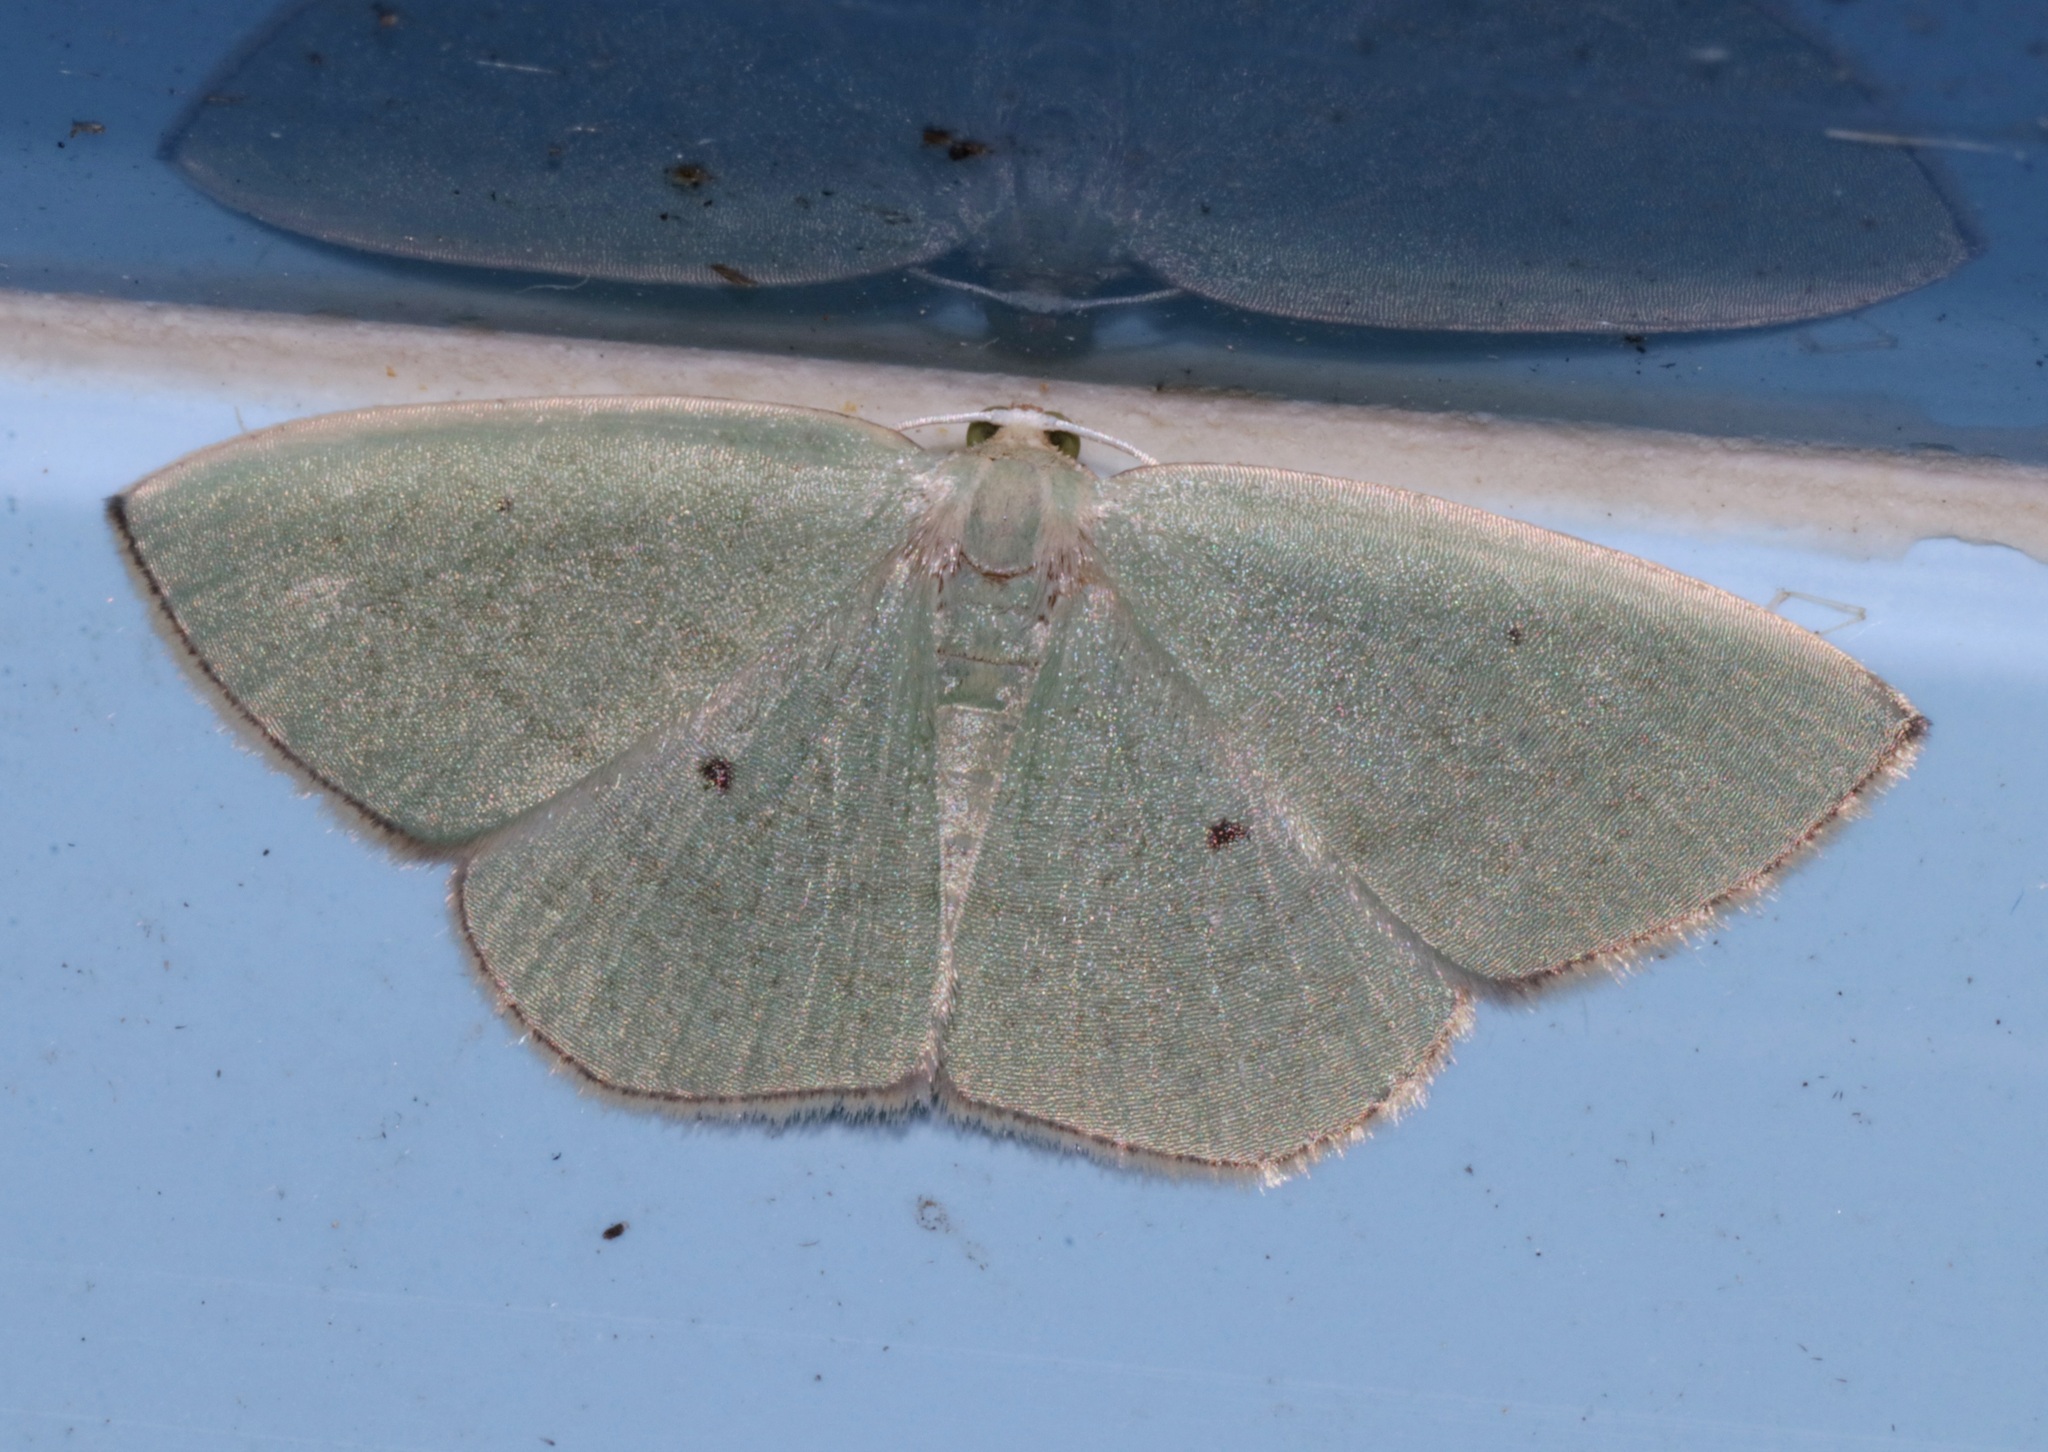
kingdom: Animalia
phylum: Arthropoda
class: Insecta
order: Lepidoptera
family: Geometridae
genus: Pseudothalera
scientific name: Pseudothalera carolinae
